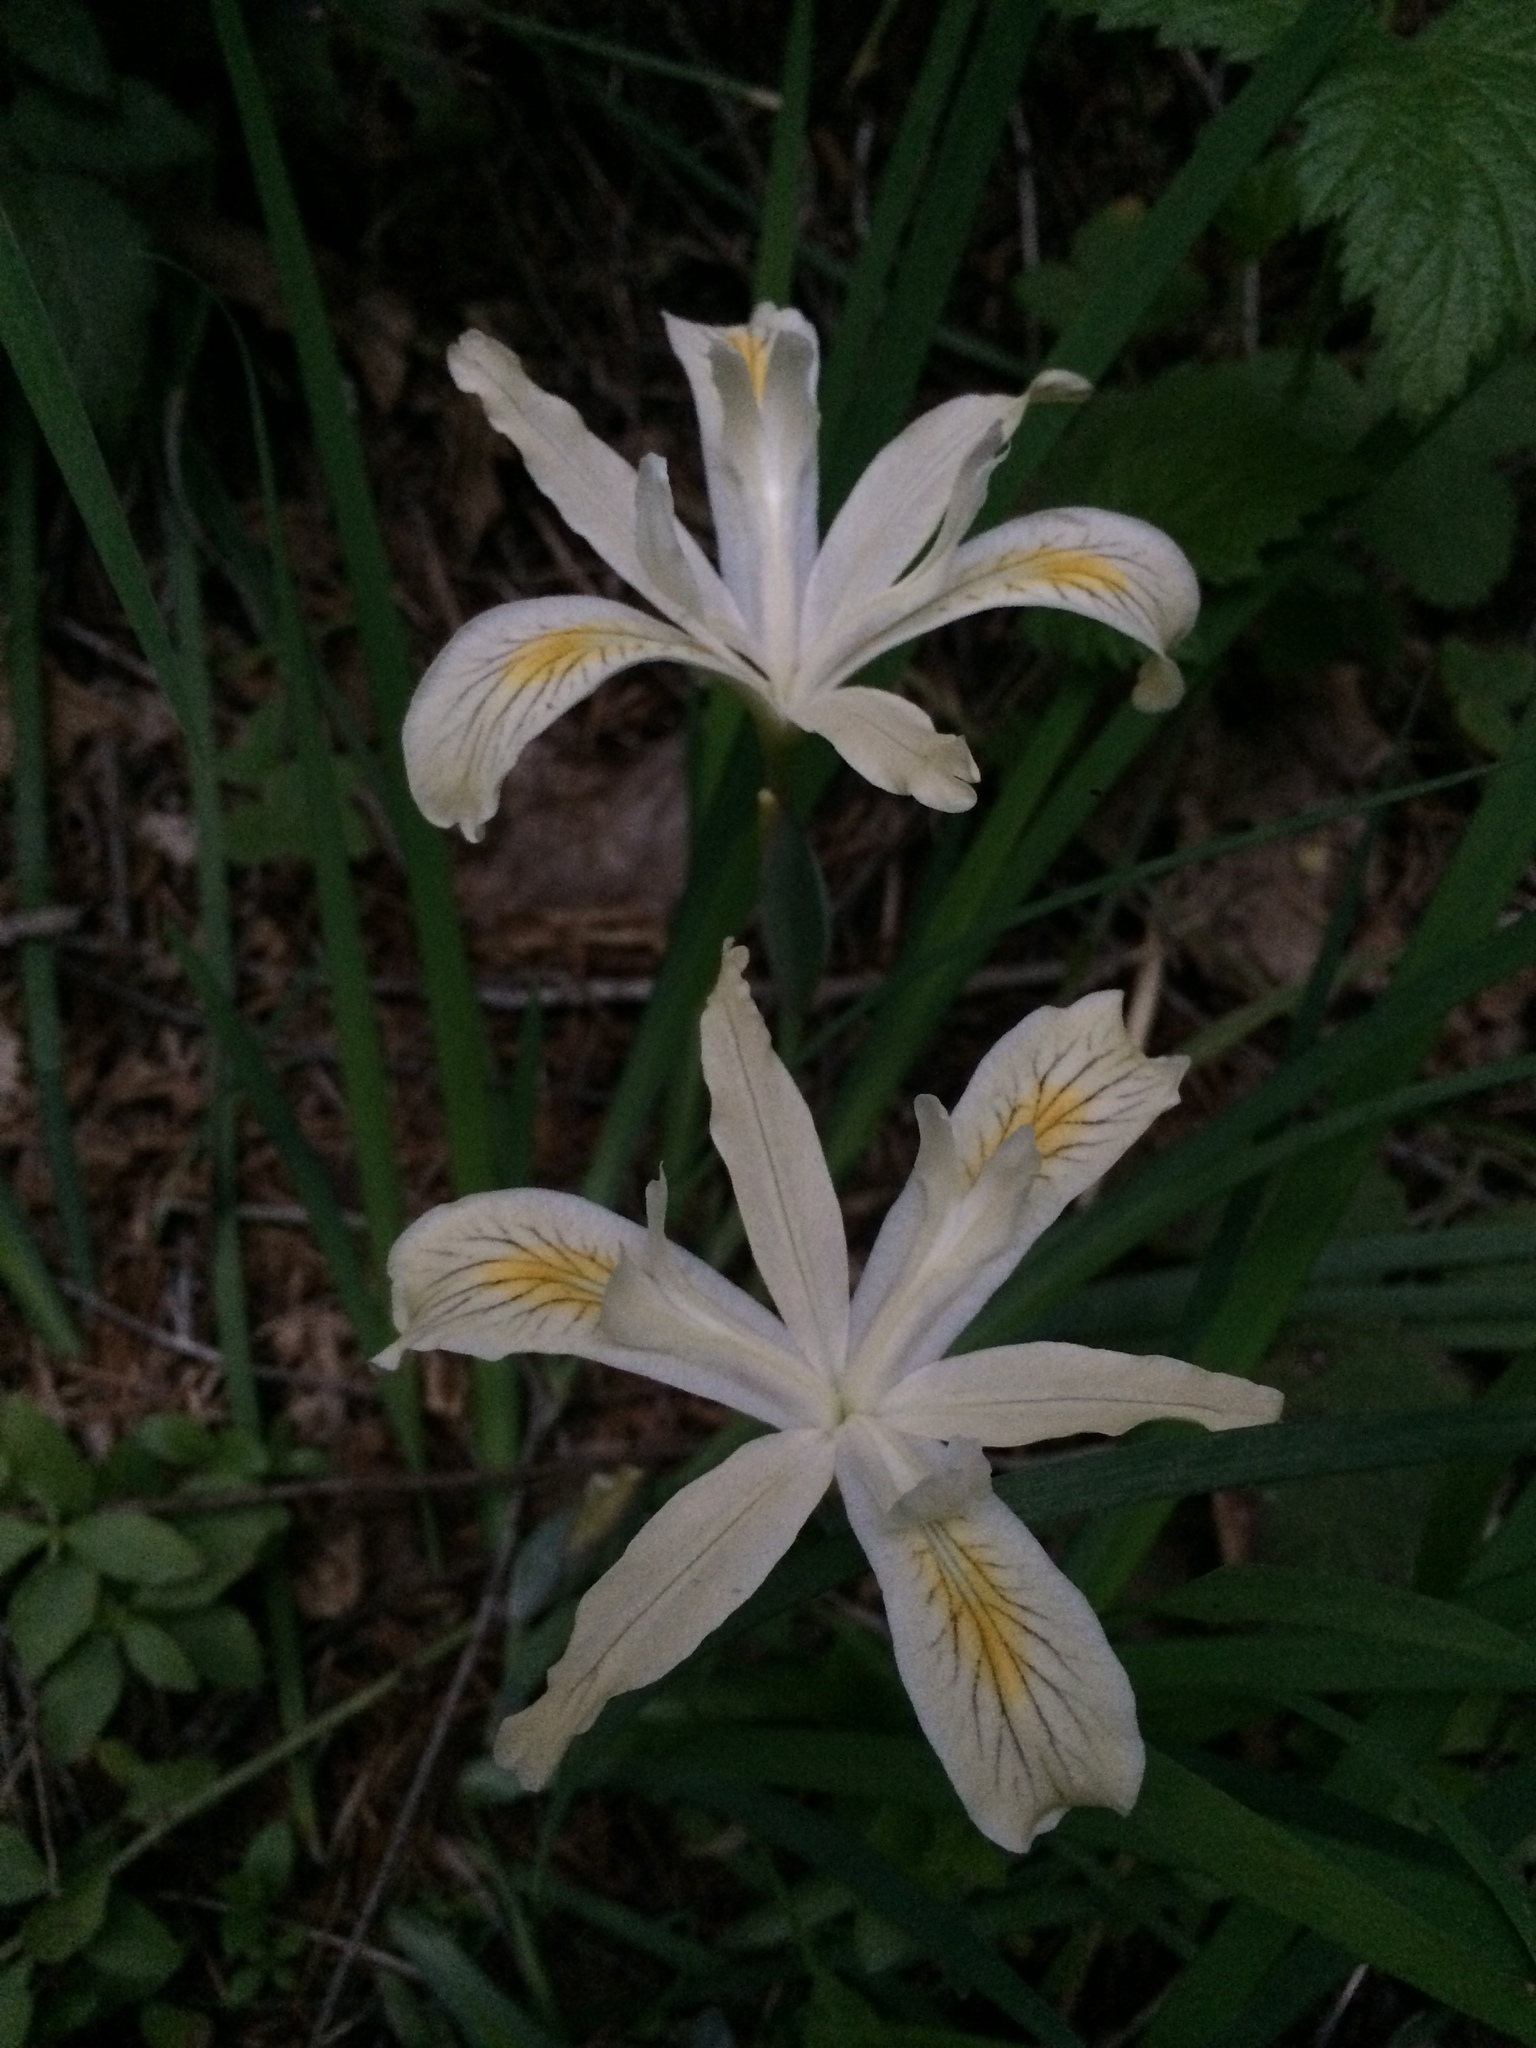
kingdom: Plantae
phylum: Tracheophyta
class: Liliopsida
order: Asparagales
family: Iridaceae
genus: Iris
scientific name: Iris chrysophylla
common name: Yellow-leaf iris
